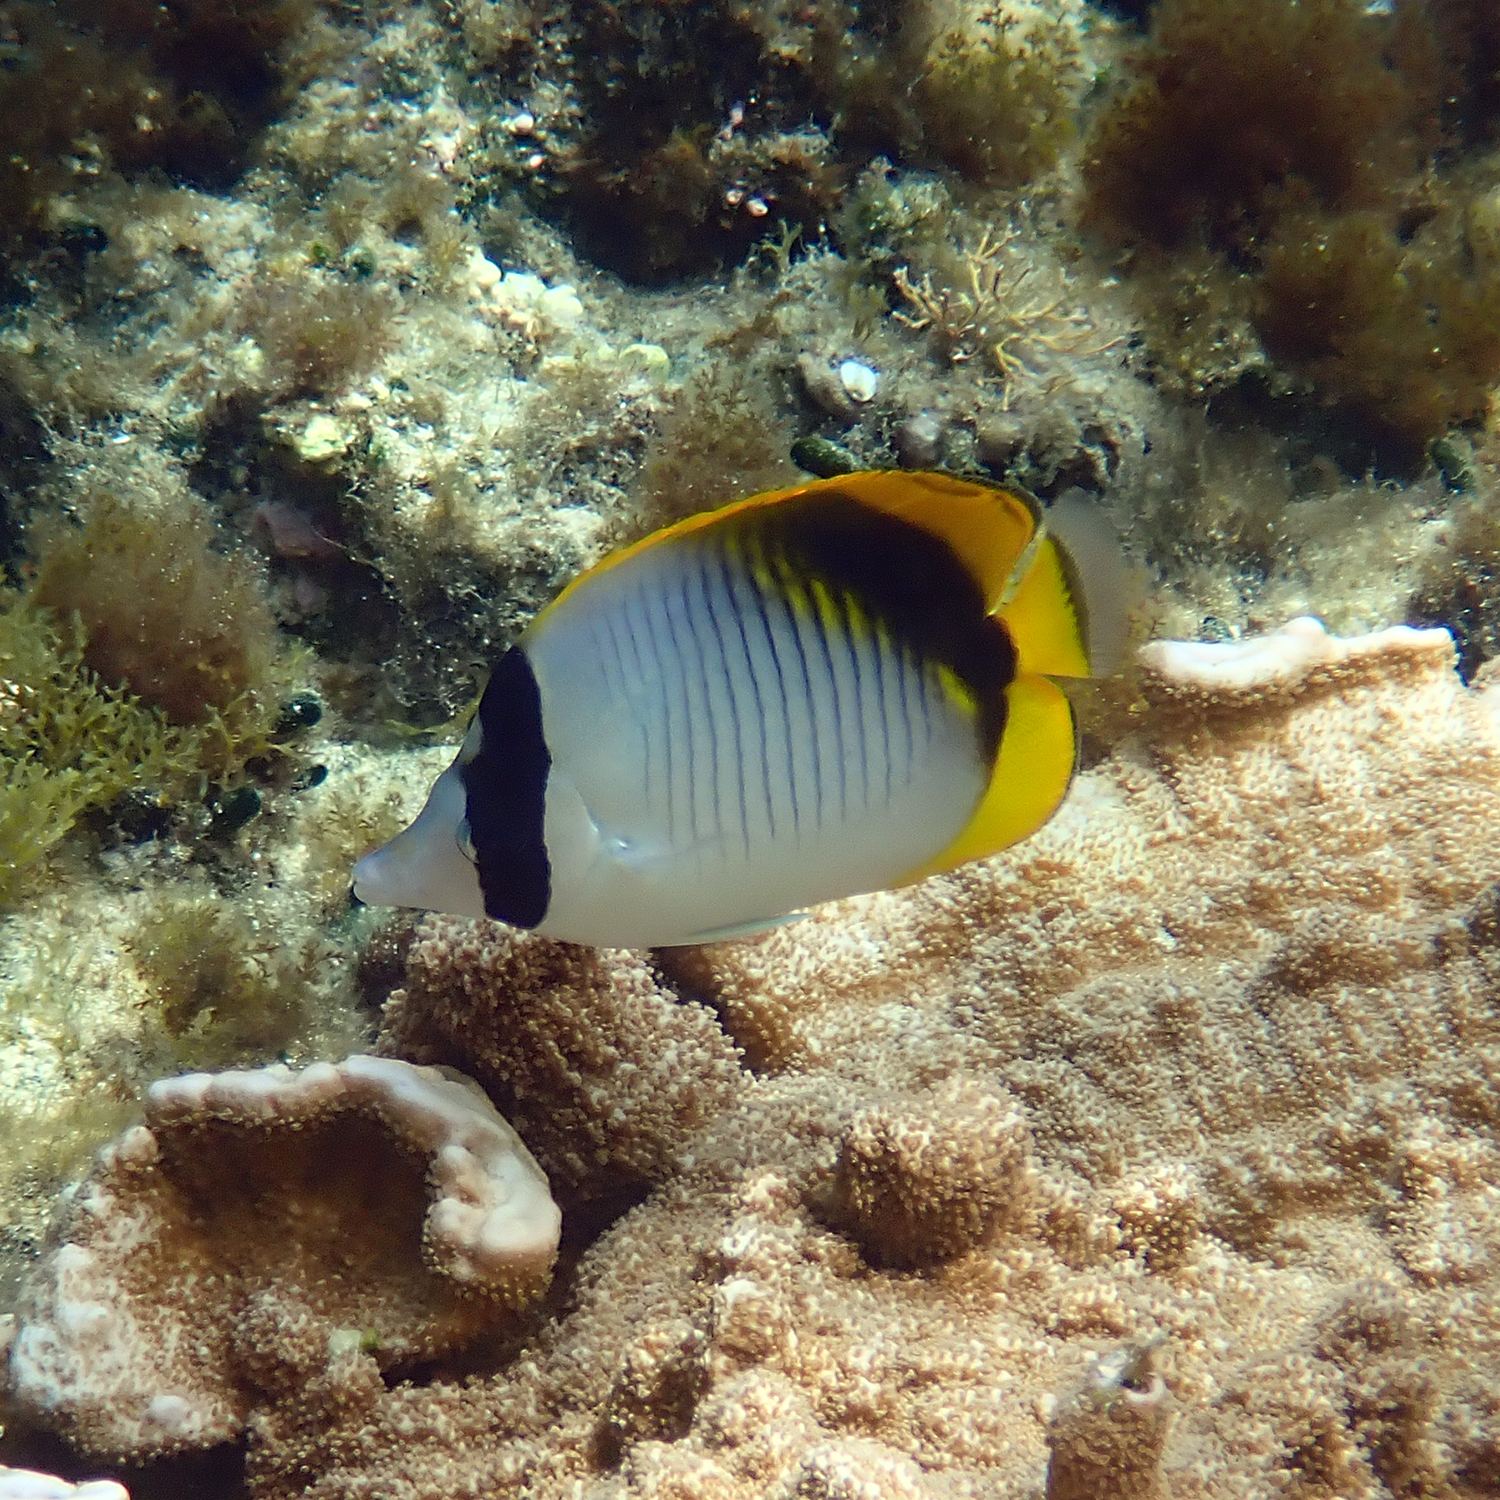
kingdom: Animalia
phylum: Chordata
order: Perciformes
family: Chaetodontidae
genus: Chaetodon
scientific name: Chaetodon lineolatus
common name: Lined butterflyfish
